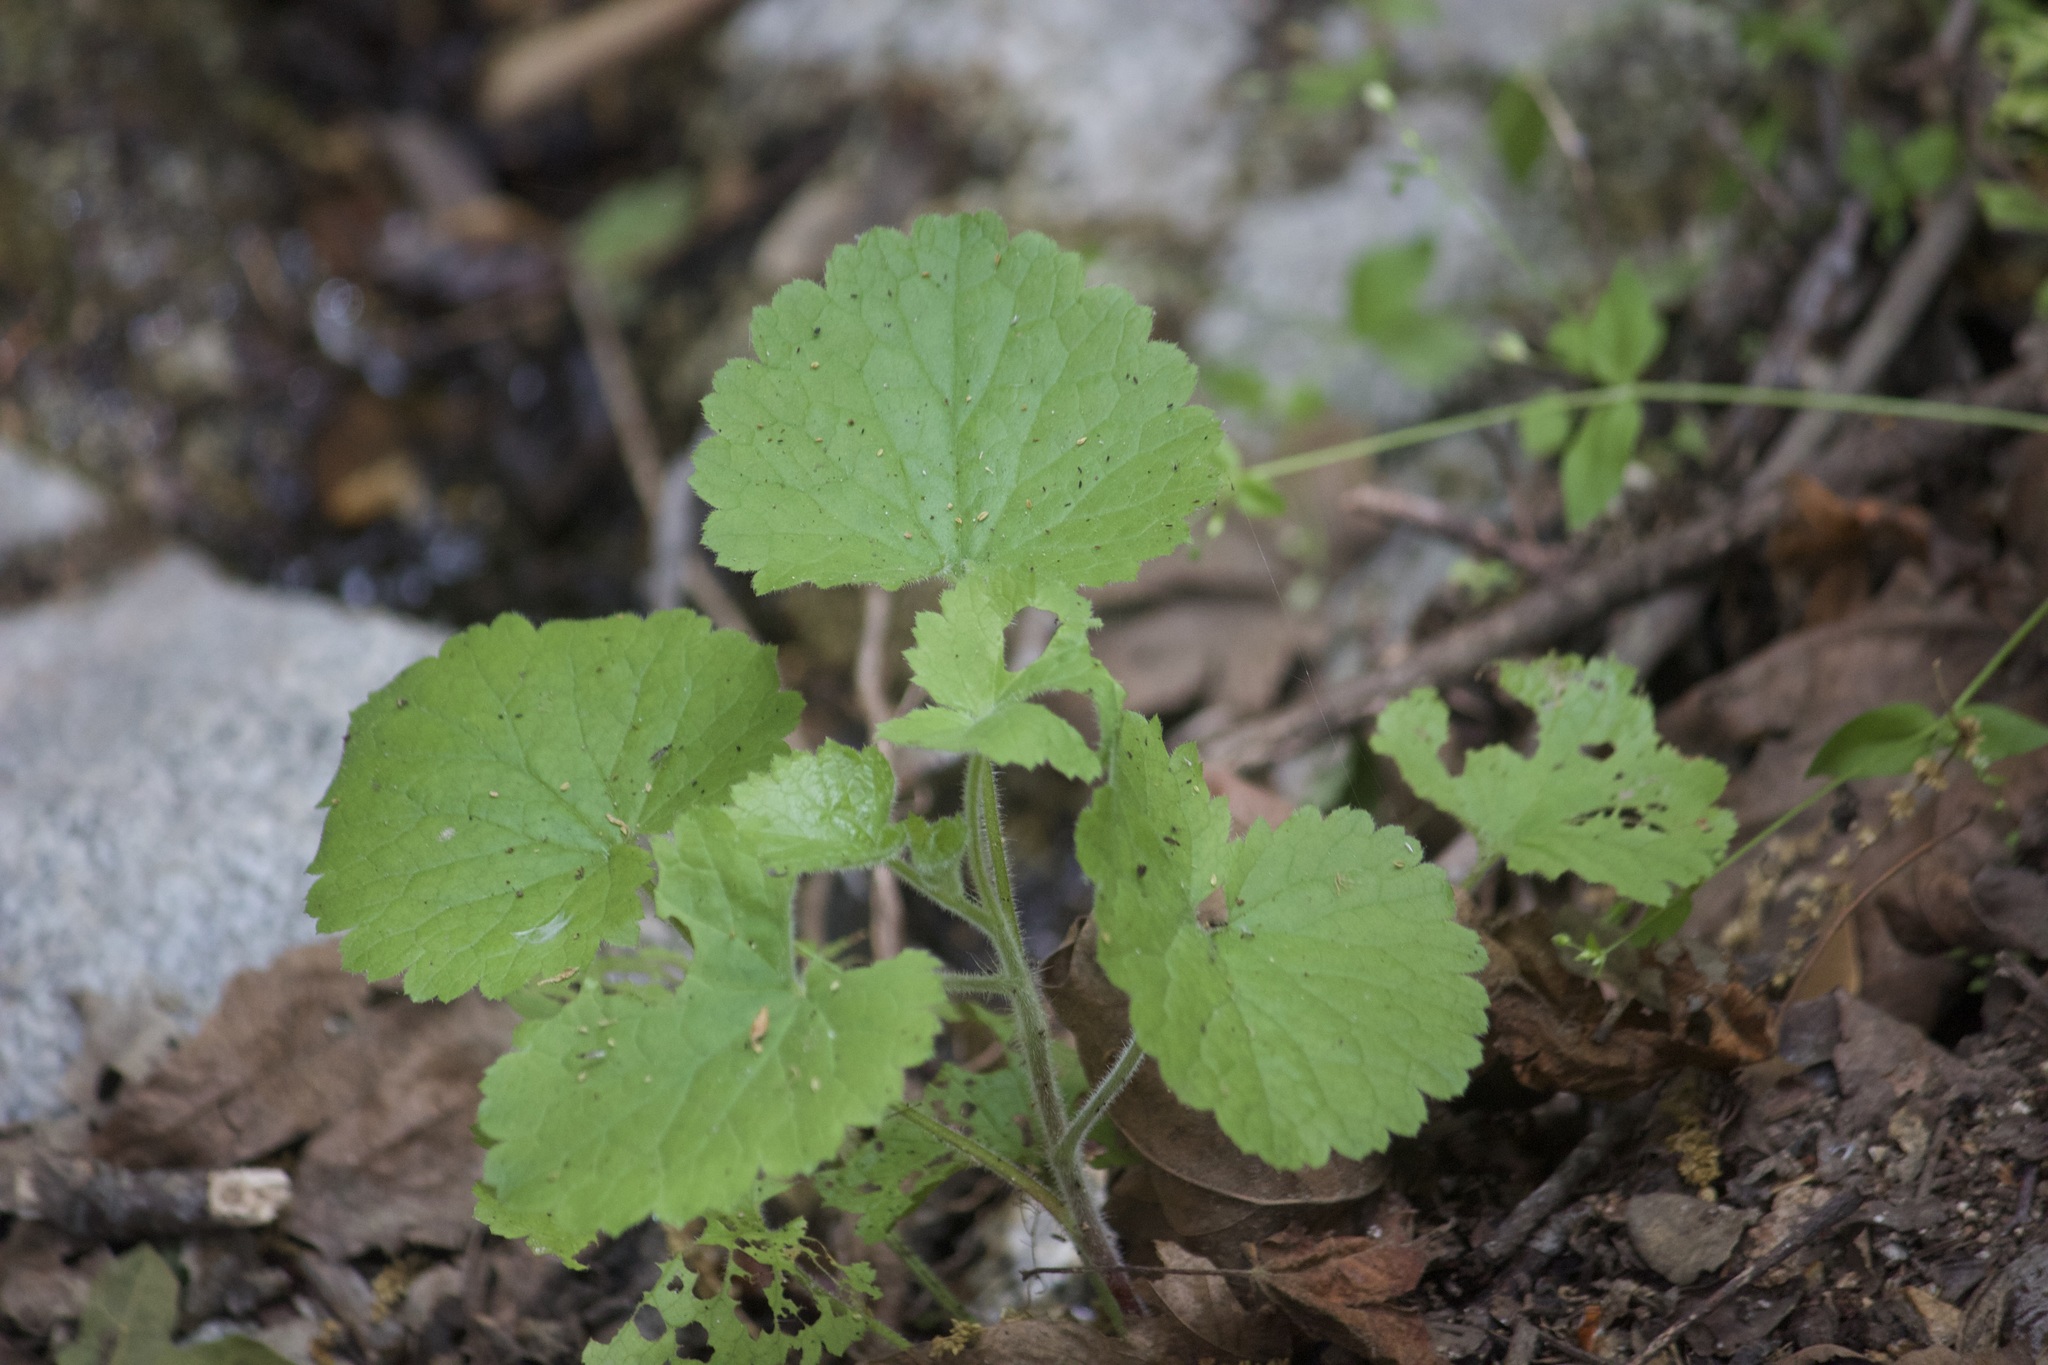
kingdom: Plantae
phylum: Tracheophyta
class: Magnoliopsida
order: Saxifragales
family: Saxifragaceae
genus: Boykinia
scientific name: Boykinia rotundifolia
